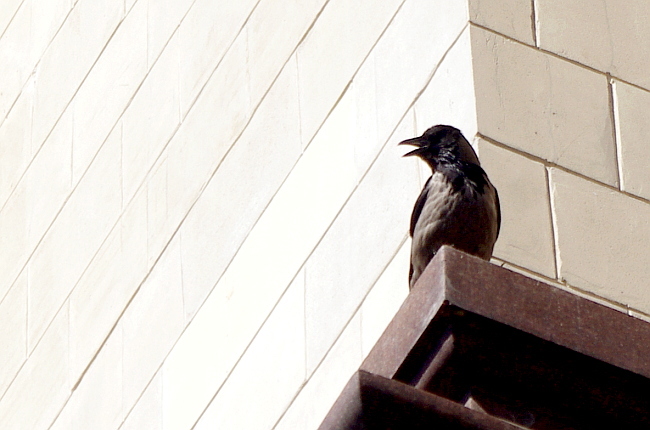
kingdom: Animalia
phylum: Chordata
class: Aves
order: Passeriformes
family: Corvidae
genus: Corvus
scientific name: Corvus cornix
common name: Hooded crow
